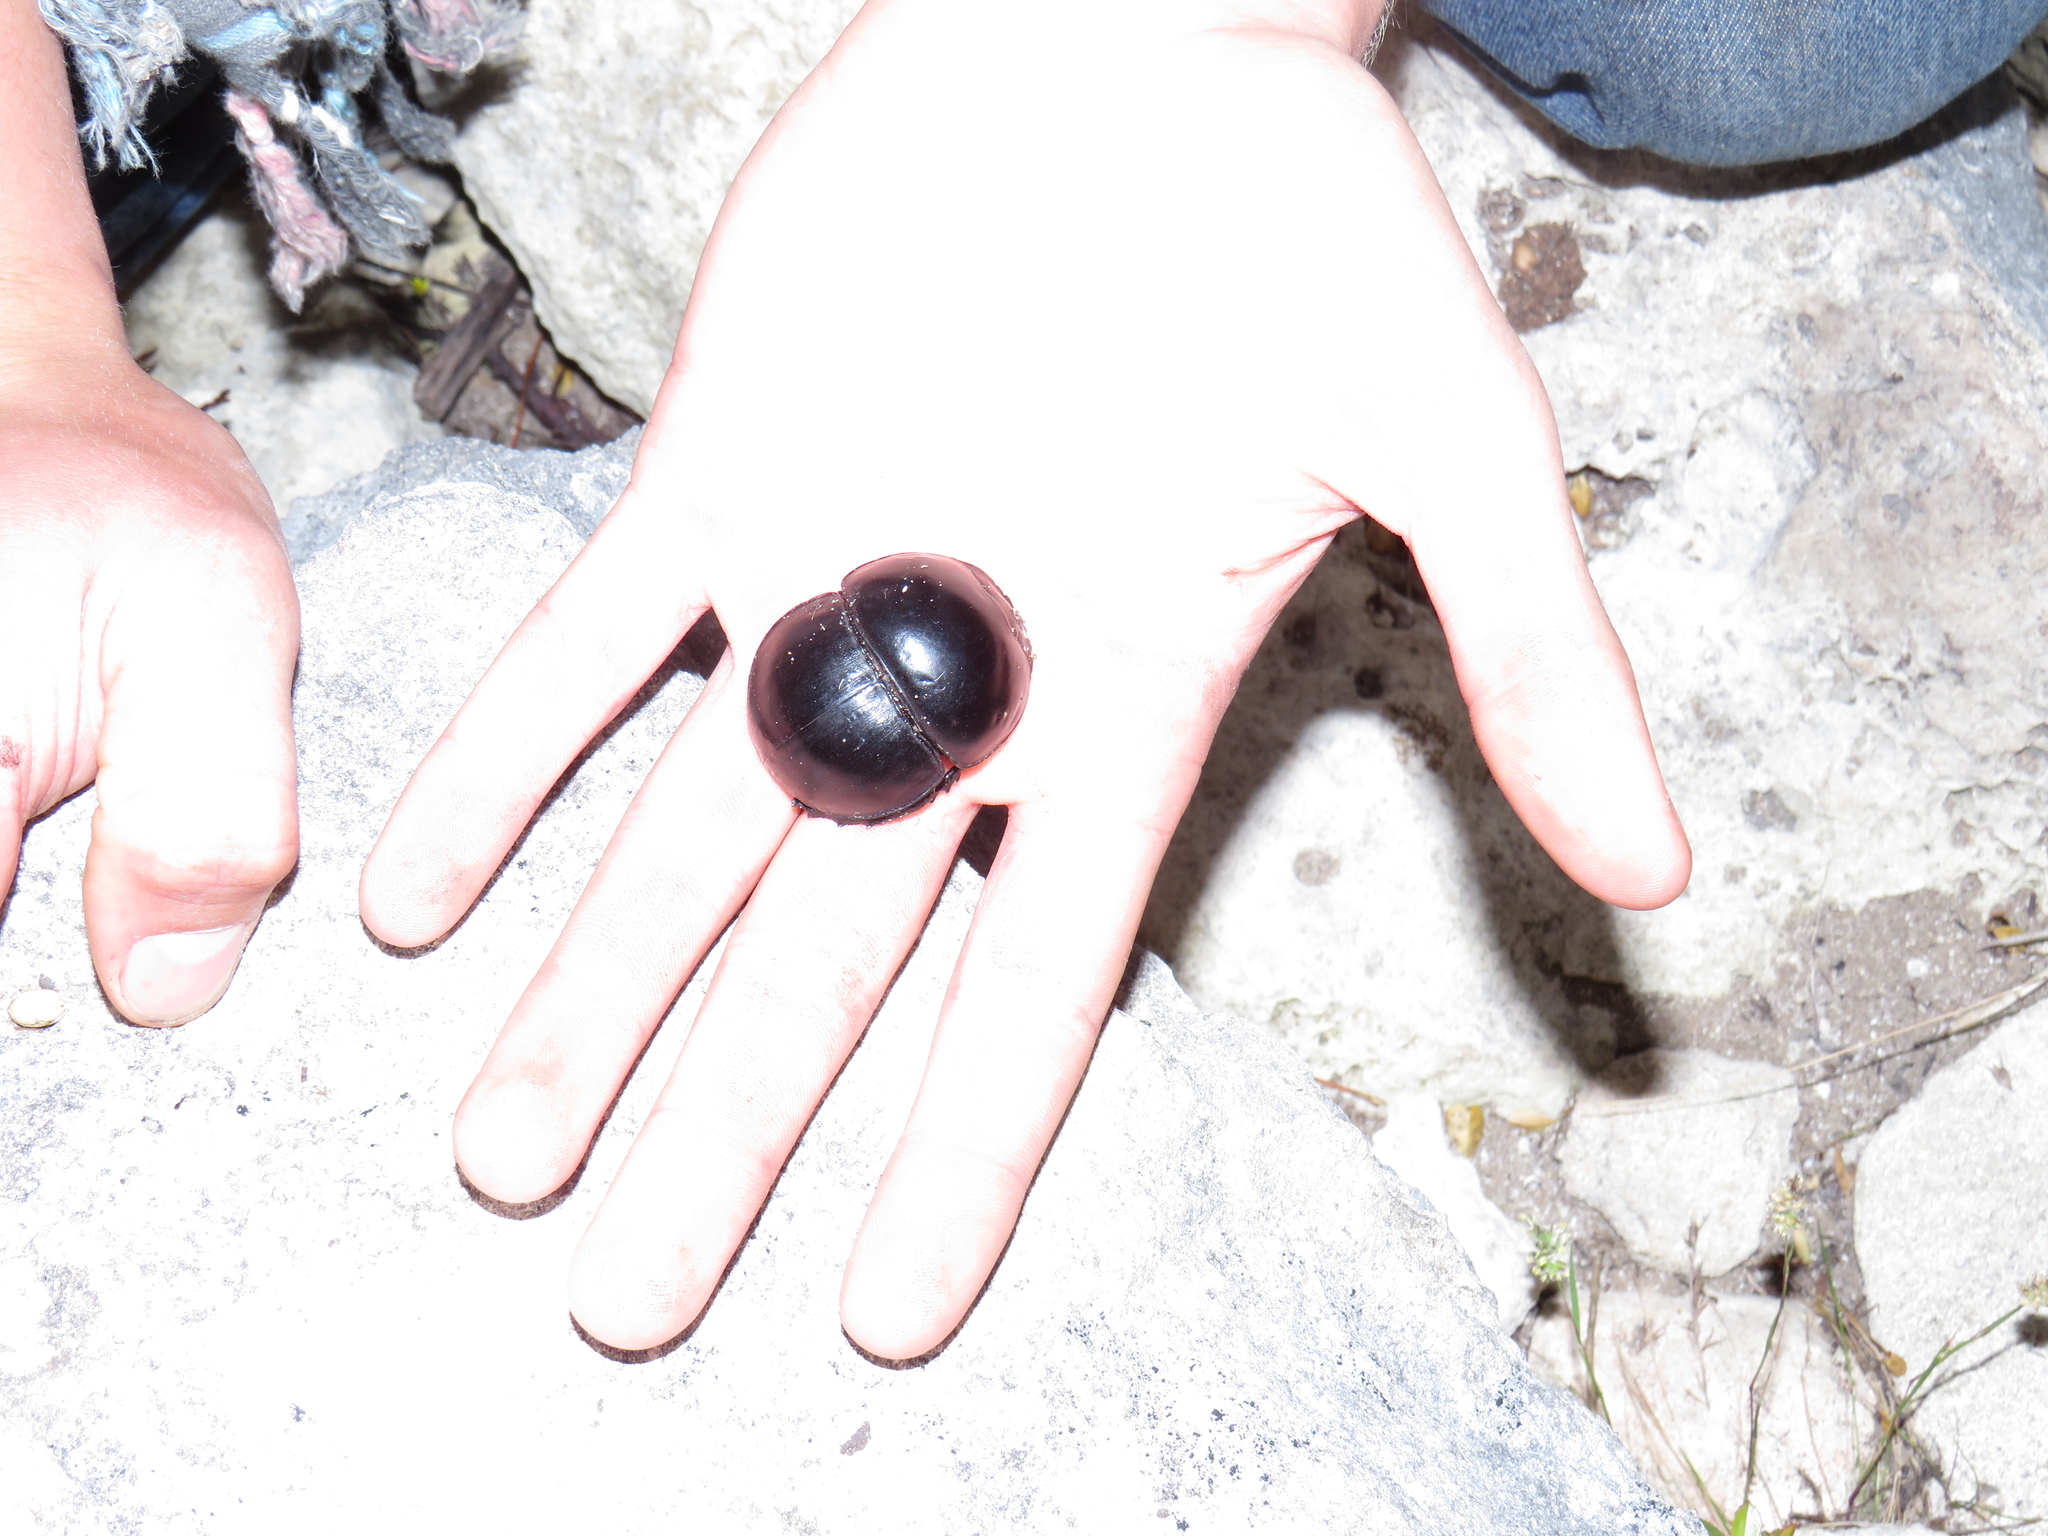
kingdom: Animalia
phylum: Arthropoda
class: Insecta
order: Coleoptera
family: Scarabaeidae
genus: Circellium
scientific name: Circellium bacchus
